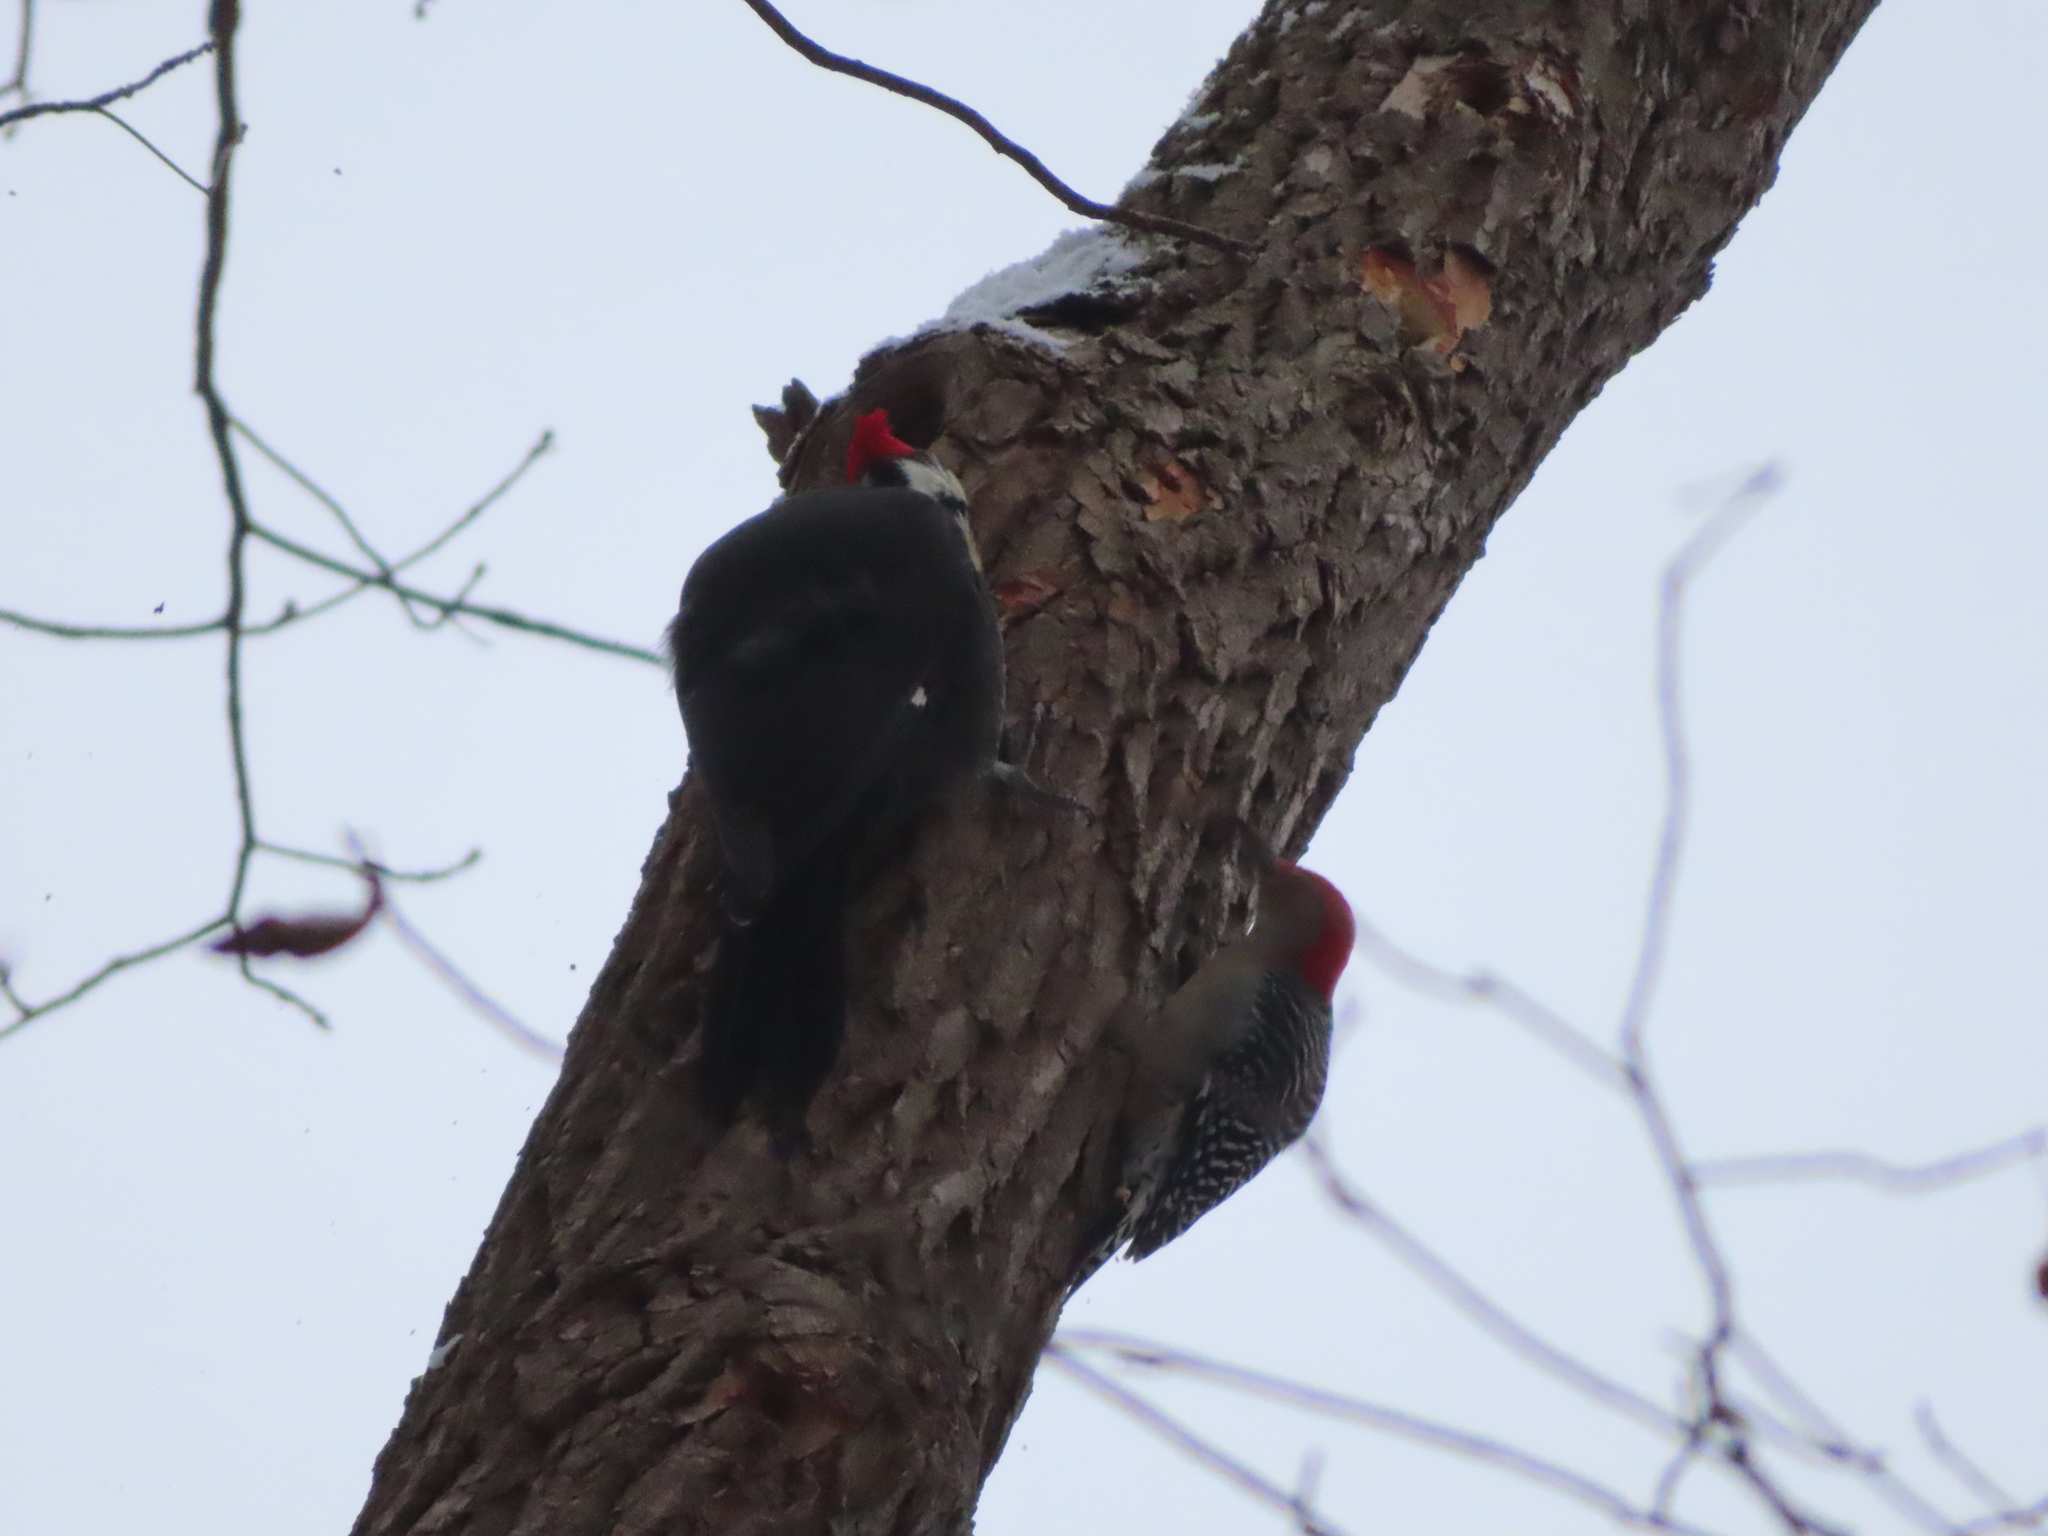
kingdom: Animalia
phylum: Chordata
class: Aves
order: Piciformes
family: Picidae
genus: Dryocopus
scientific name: Dryocopus pileatus
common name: Pileated woodpecker
